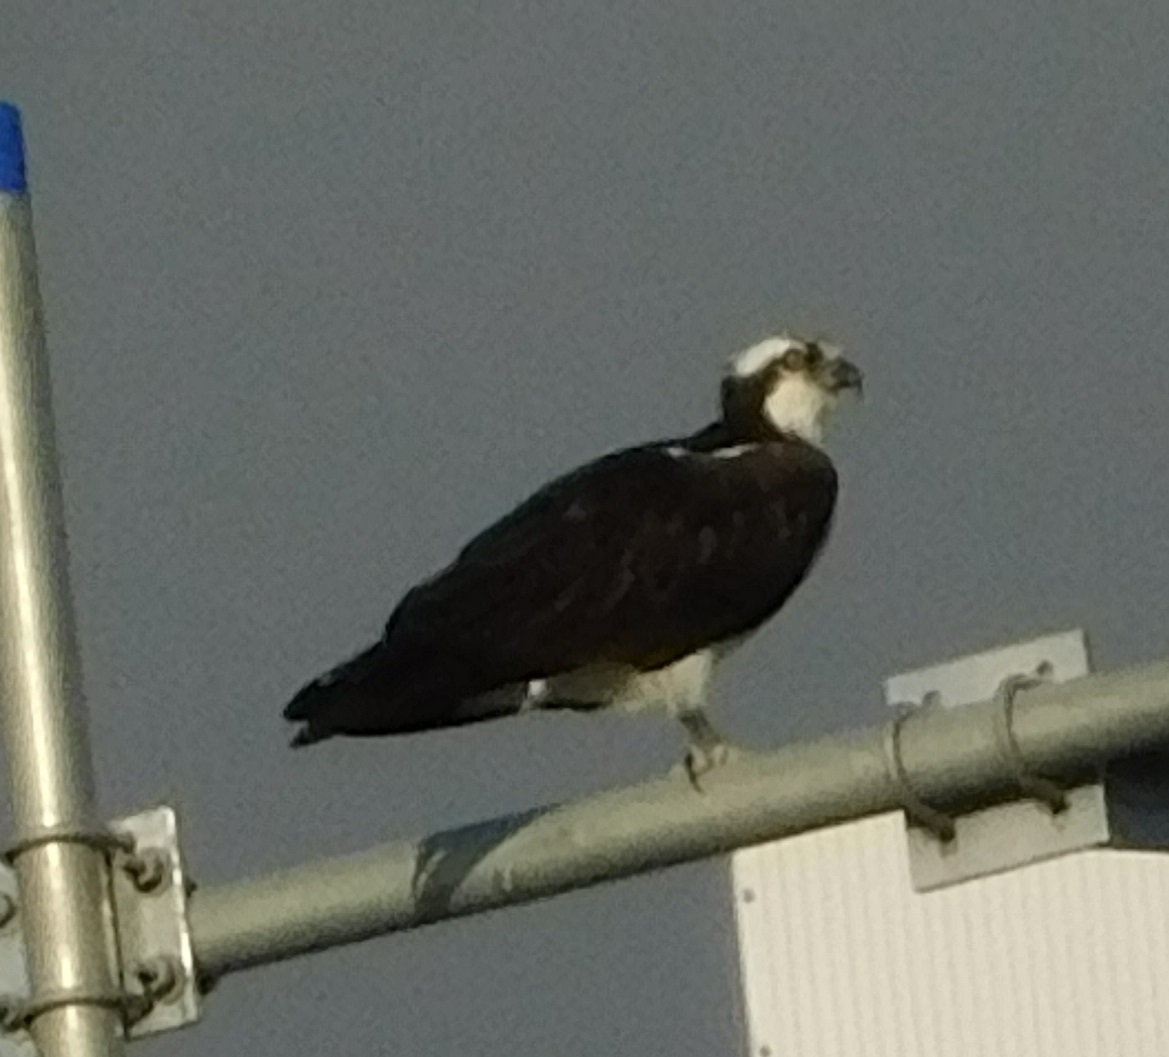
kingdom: Animalia
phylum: Chordata
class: Aves
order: Accipitriformes
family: Pandionidae
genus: Pandion
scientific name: Pandion haliaetus
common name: Osprey
